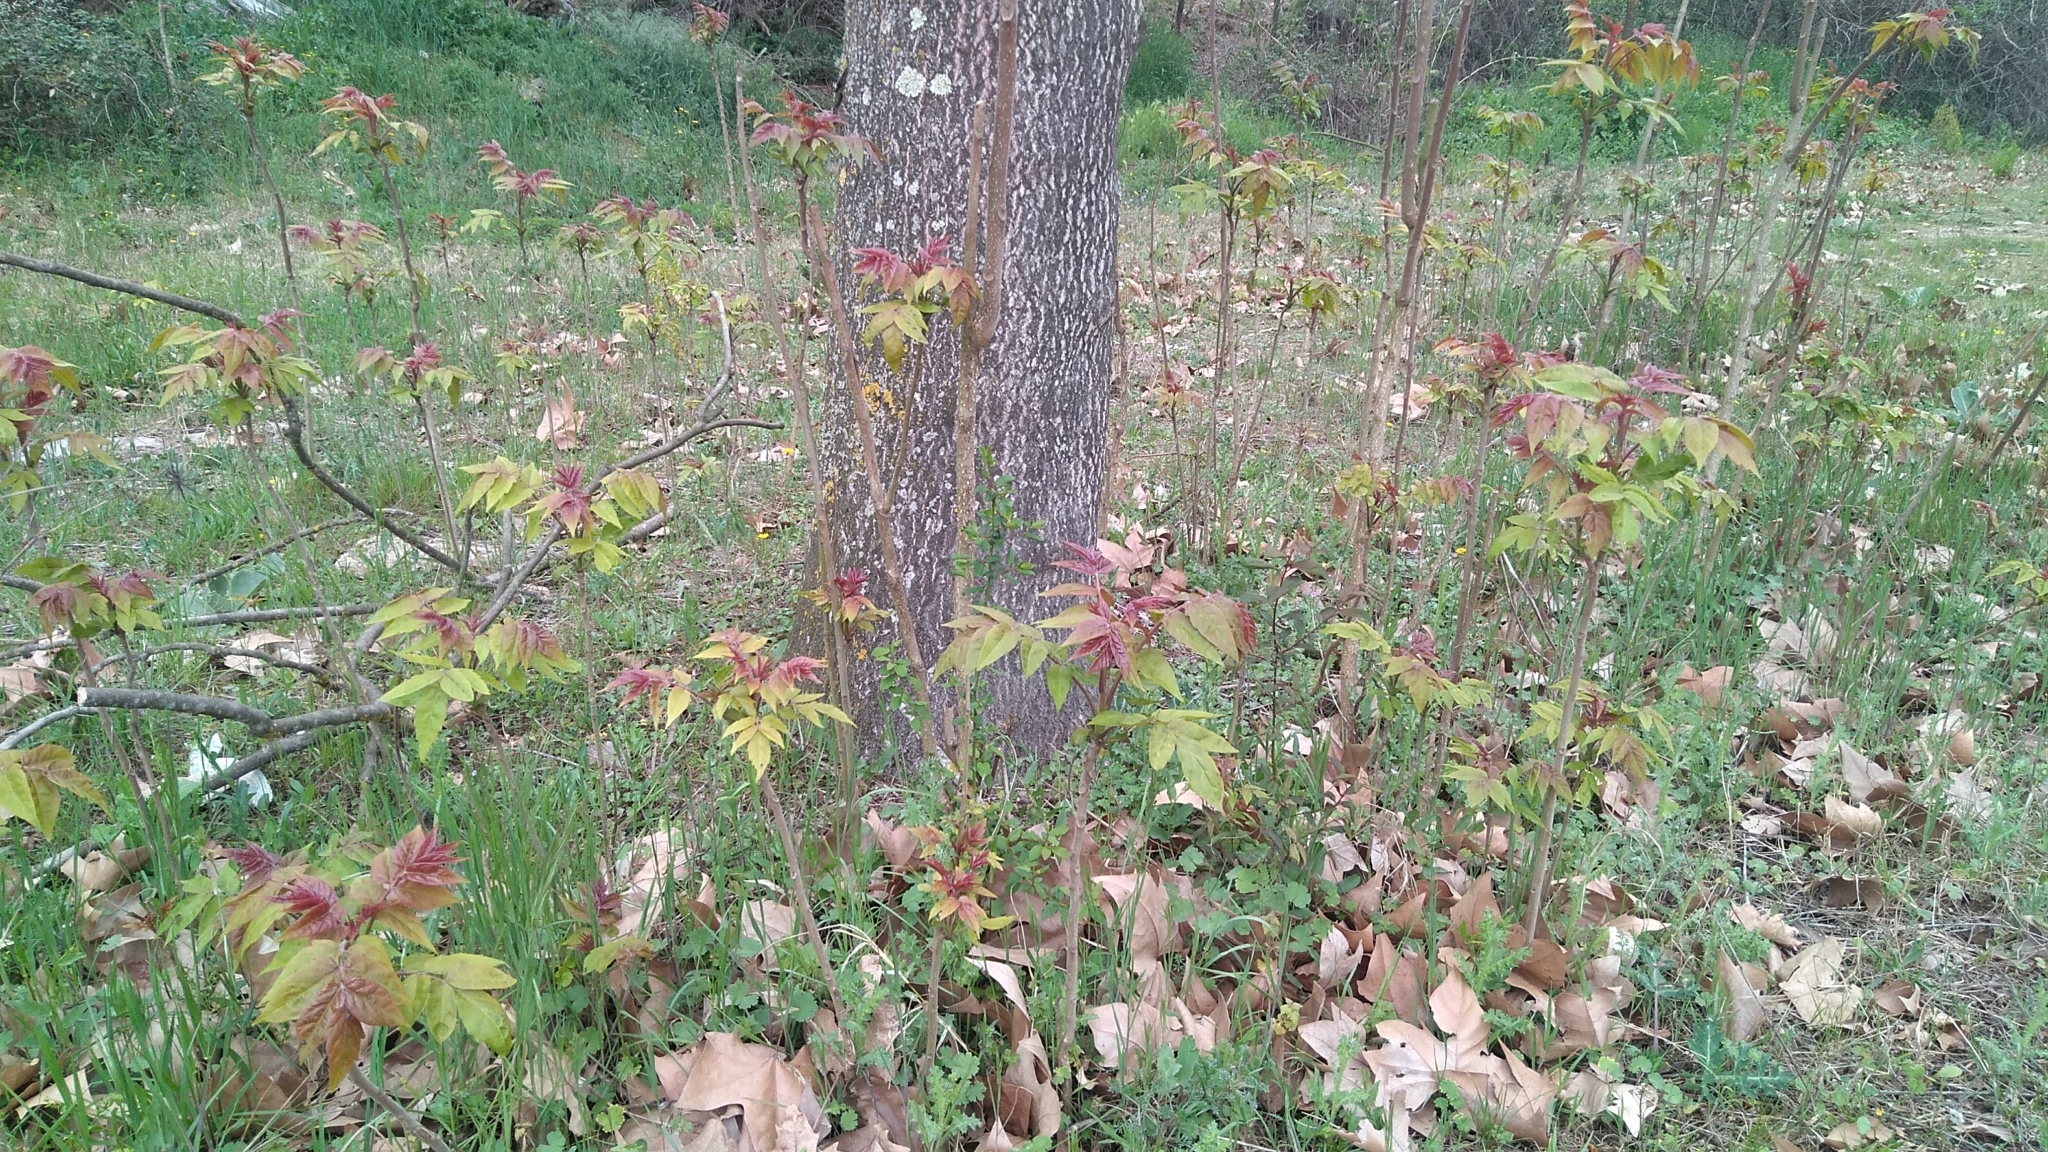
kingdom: Plantae
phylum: Tracheophyta
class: Magnoliopsida
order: Sapindales
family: Simaroubaceae
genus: Ailanthus
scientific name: Ailanthus altissima
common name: Tree-of-heaven
